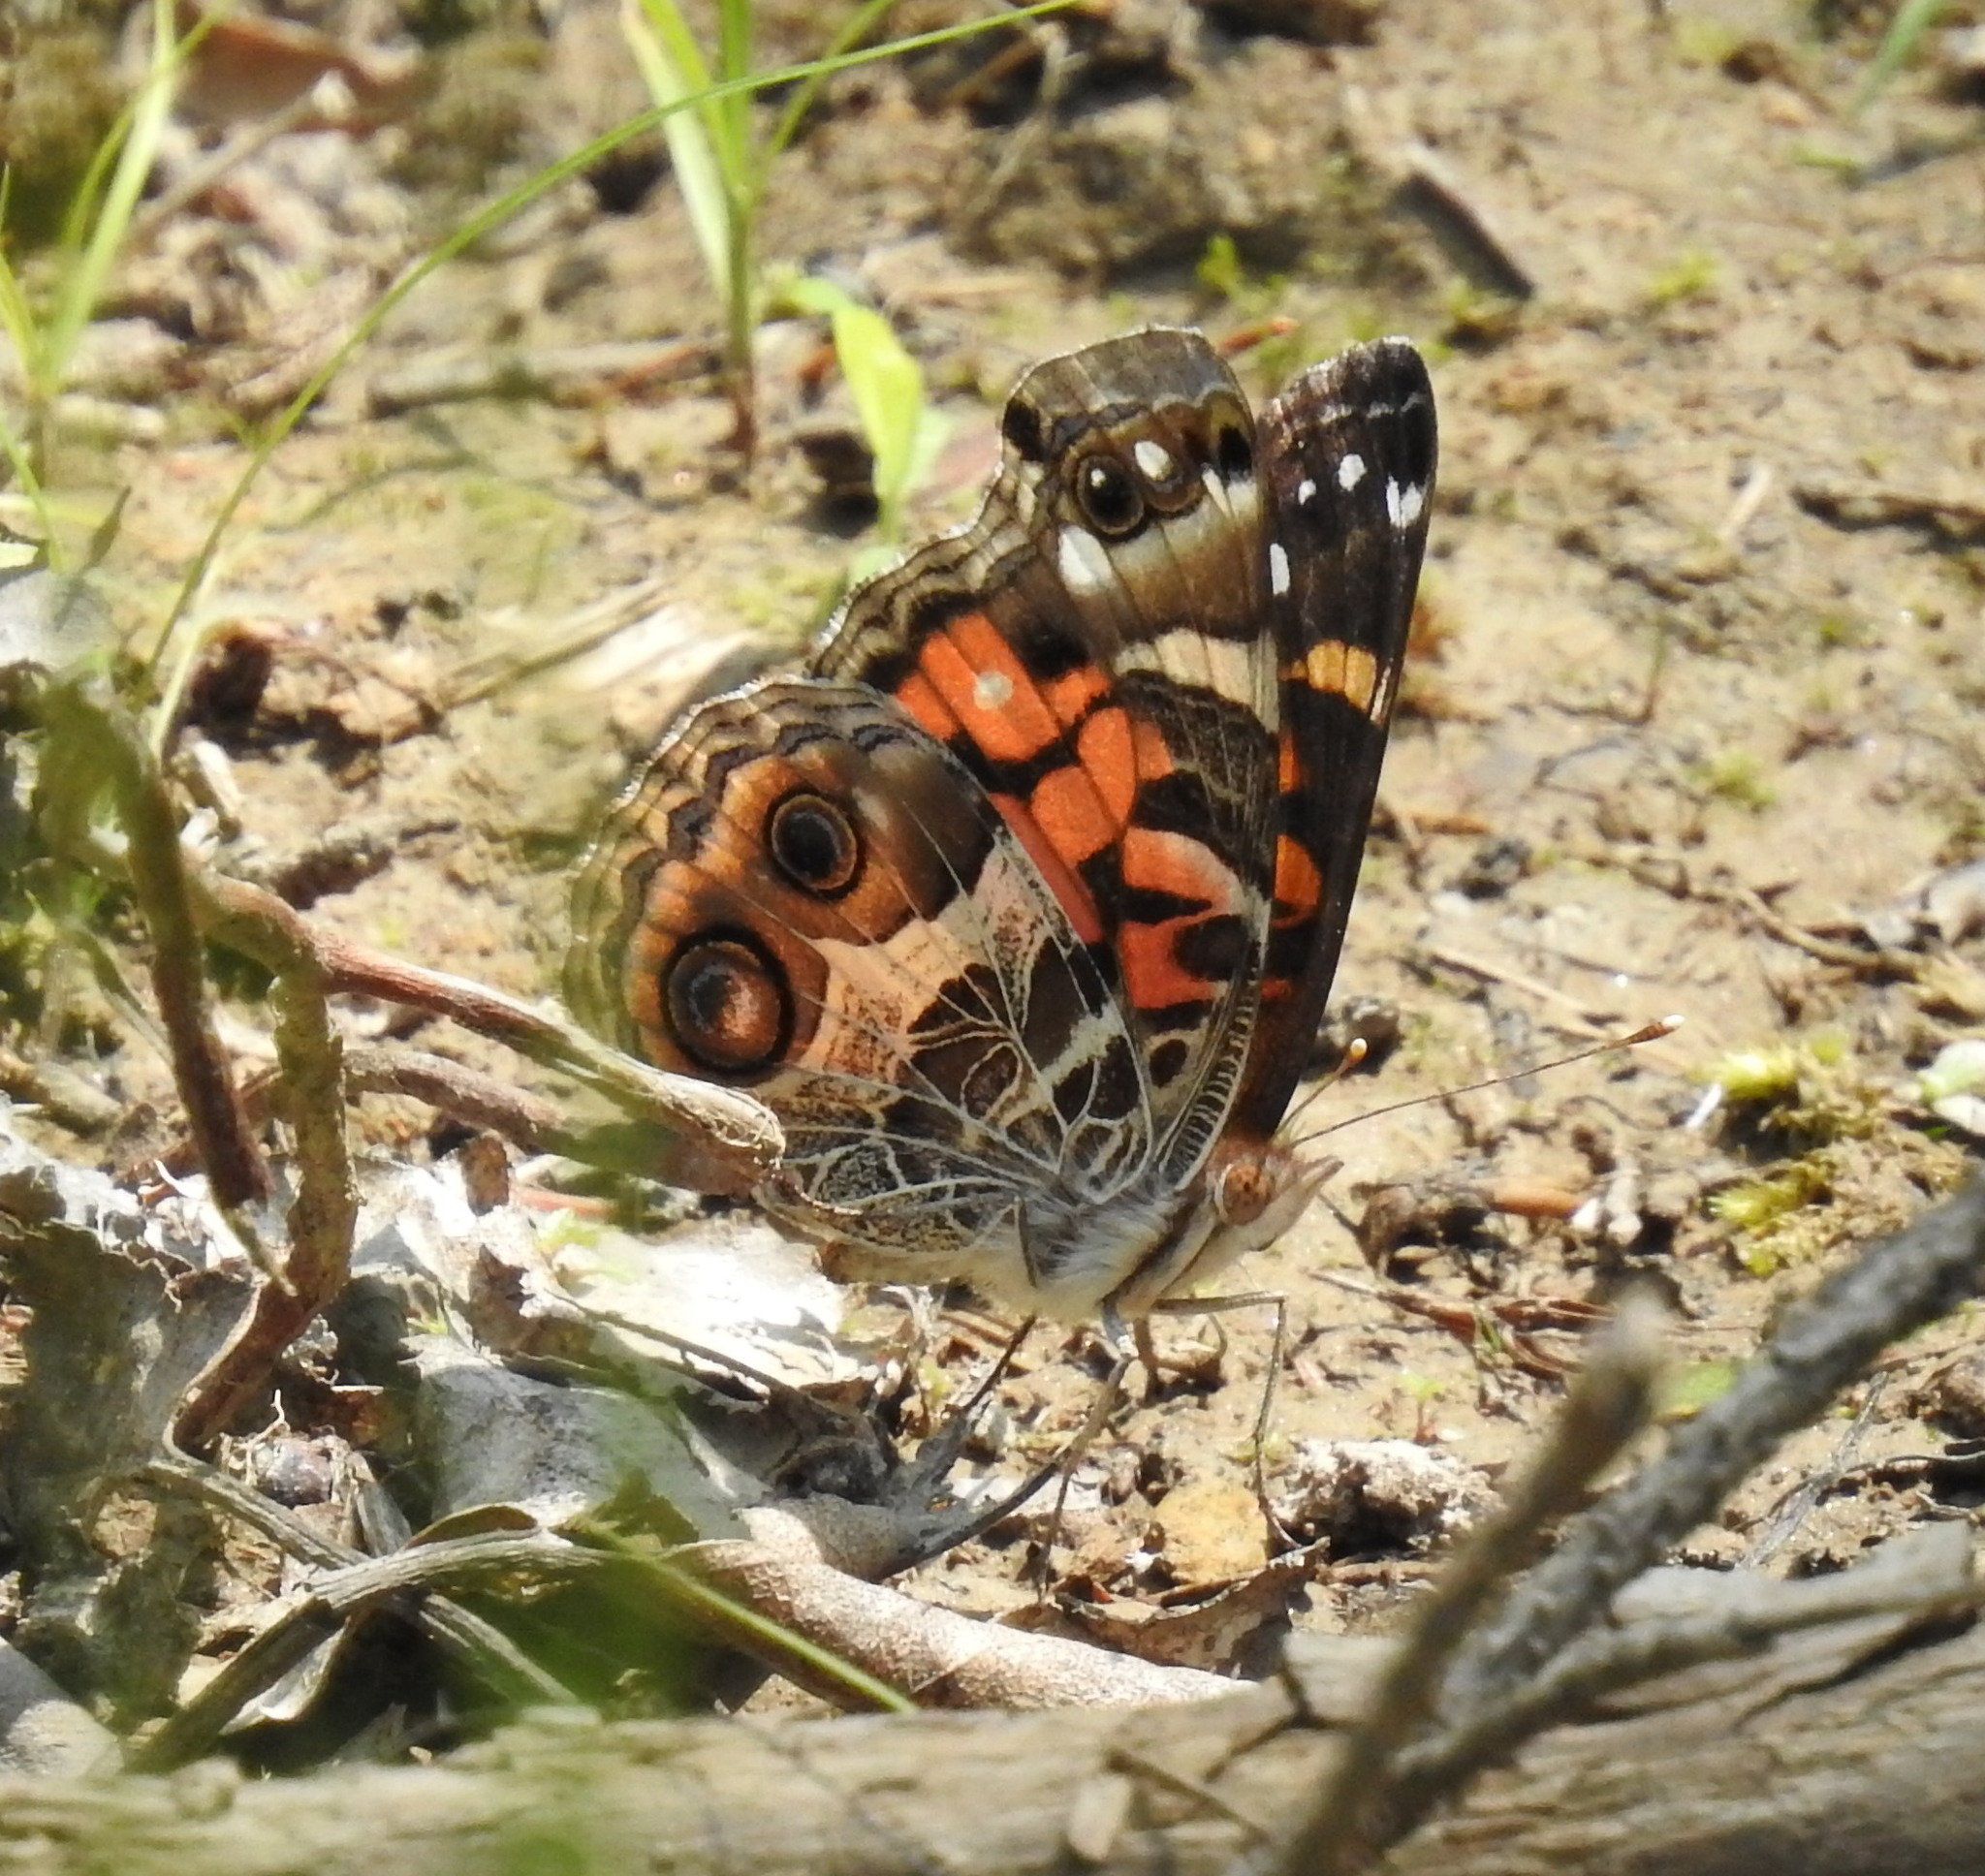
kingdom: Animalia
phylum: Arthropoda
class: Insecta
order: Lepidoptera
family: Nymphalidae
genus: Vanessa
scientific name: Vanessa virginiensis
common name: American lady
